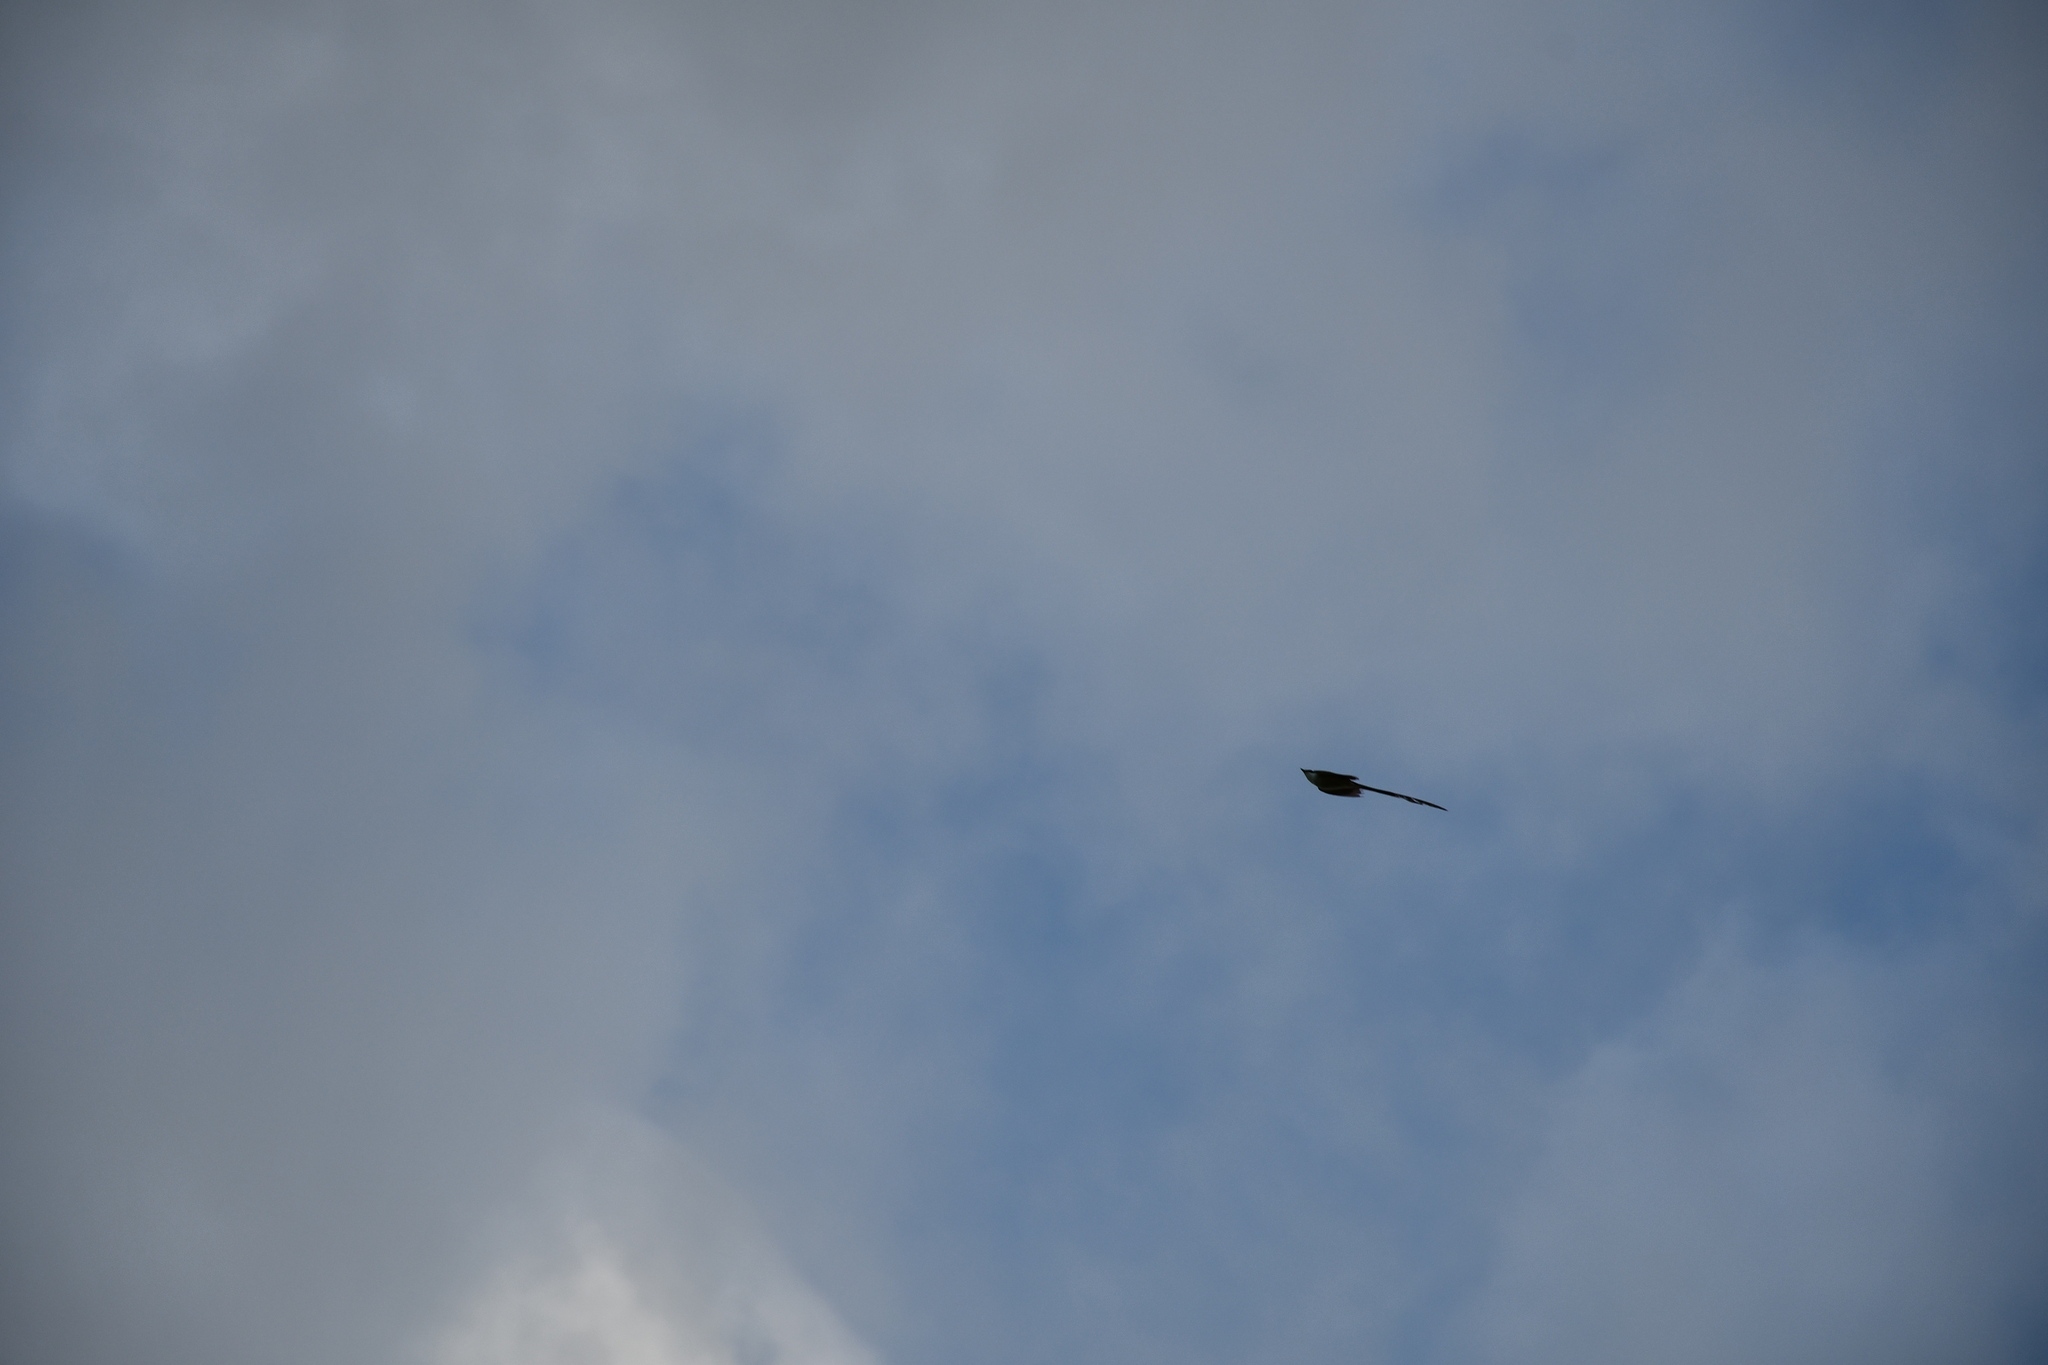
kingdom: Animalia
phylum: Chordata
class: Aves
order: Passeriformes
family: Tyrannidae
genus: Tyrannus
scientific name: Tyrannus savana
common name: Fork-tailed flycatcher
